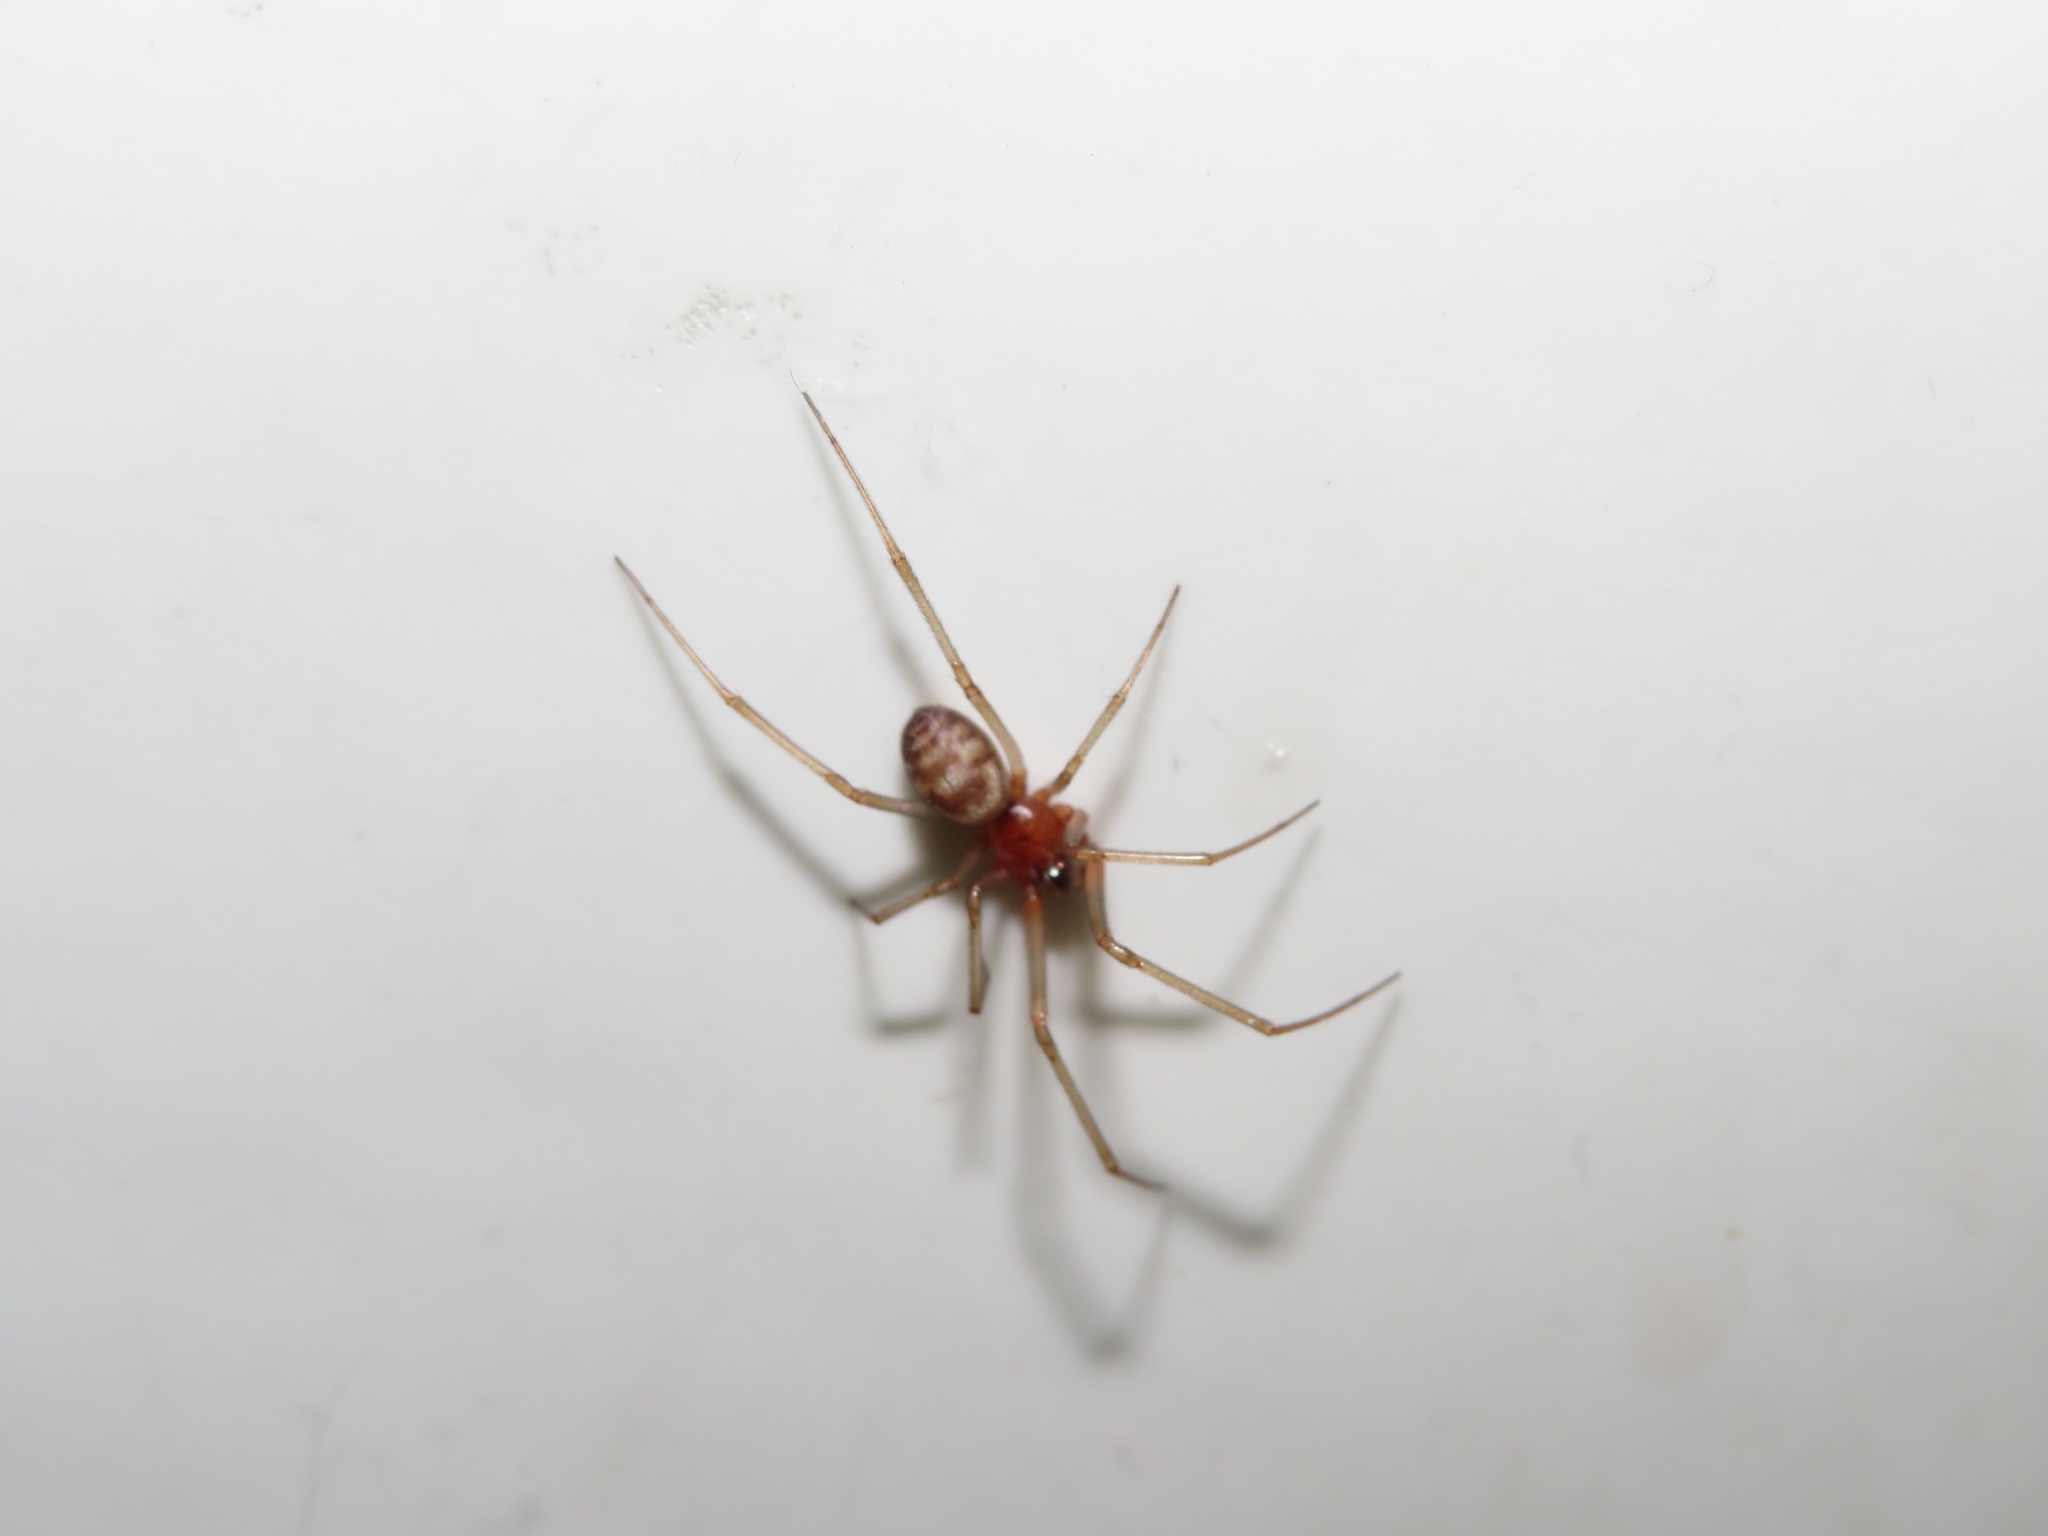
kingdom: Animalia
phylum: Arthropoda
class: Arachnida
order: Araneae
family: Theridiidae
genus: Steatoda
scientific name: Steatoda grossa
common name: False black widow
